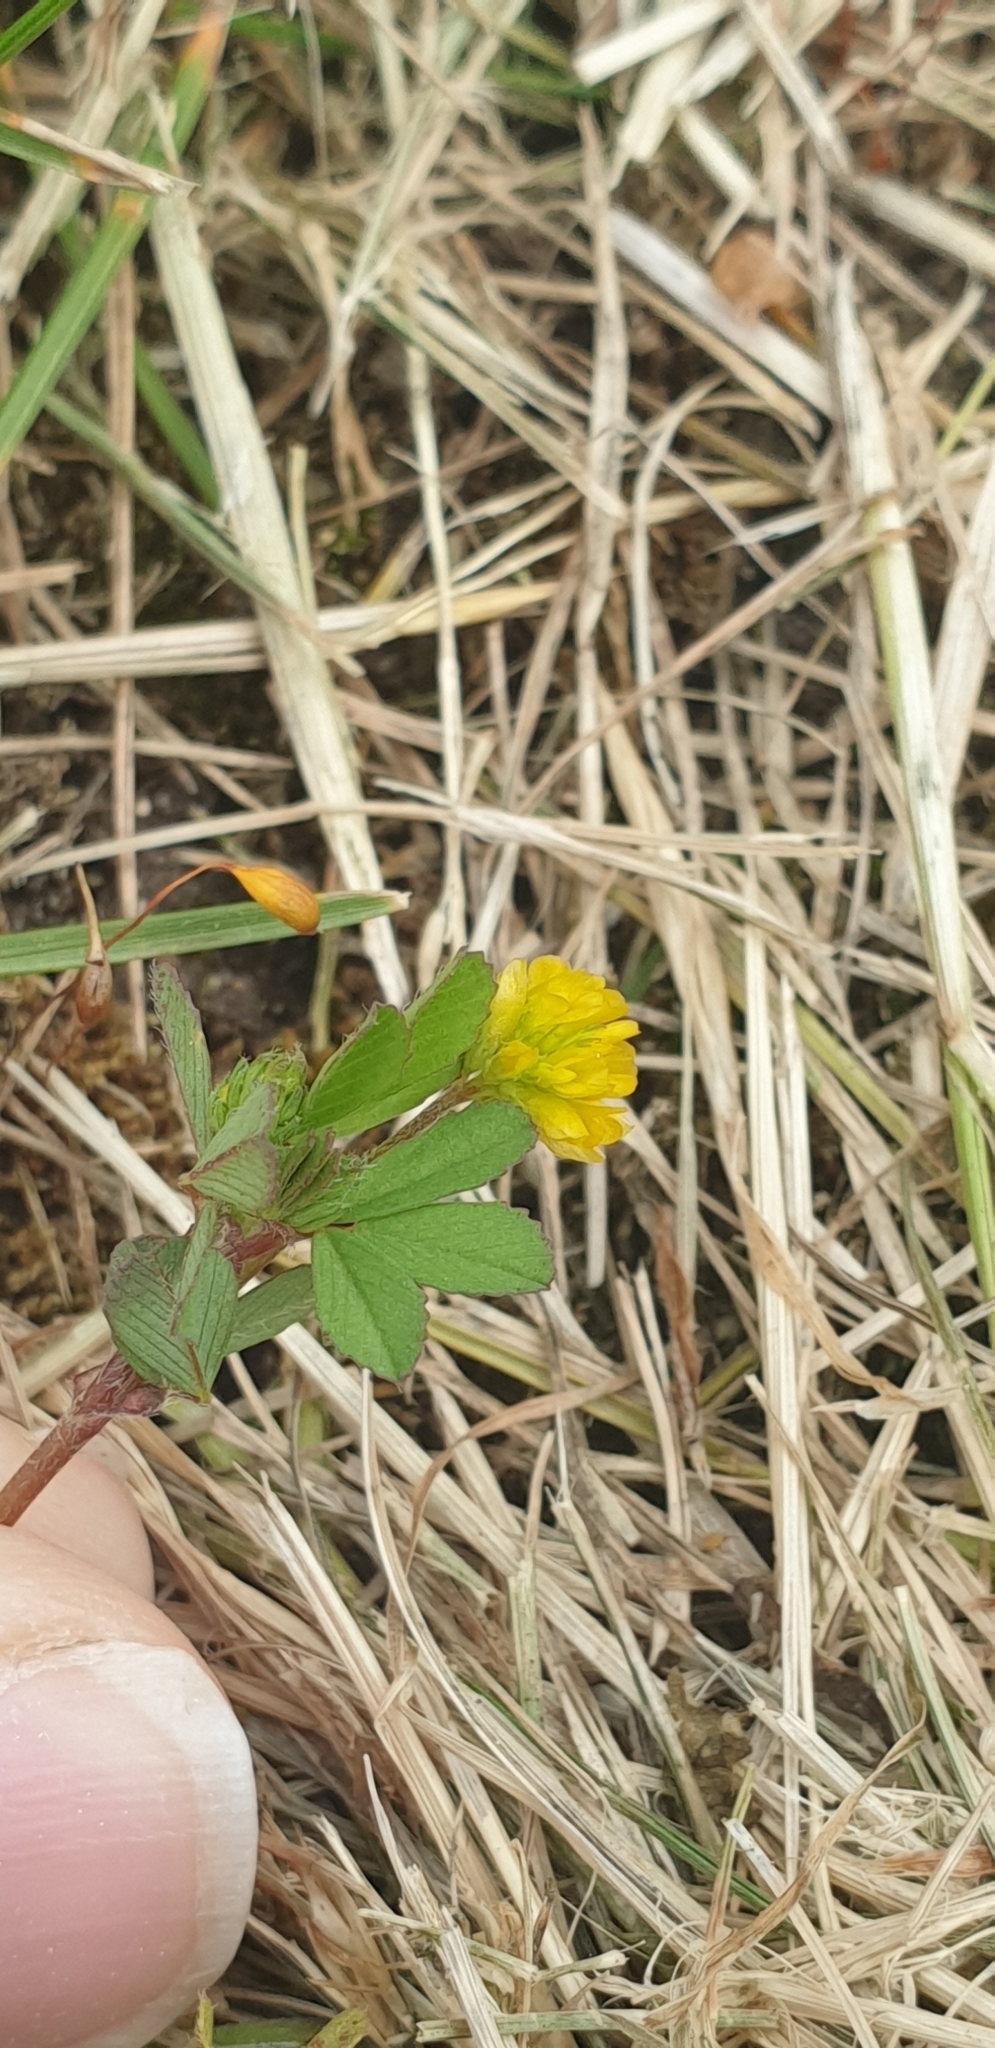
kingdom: Plantae
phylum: Tracheophyta
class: Magnoliopsida
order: Fabales
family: Fabaceae
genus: Trifolium
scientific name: Trifolium dubium
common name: Suckling clover
